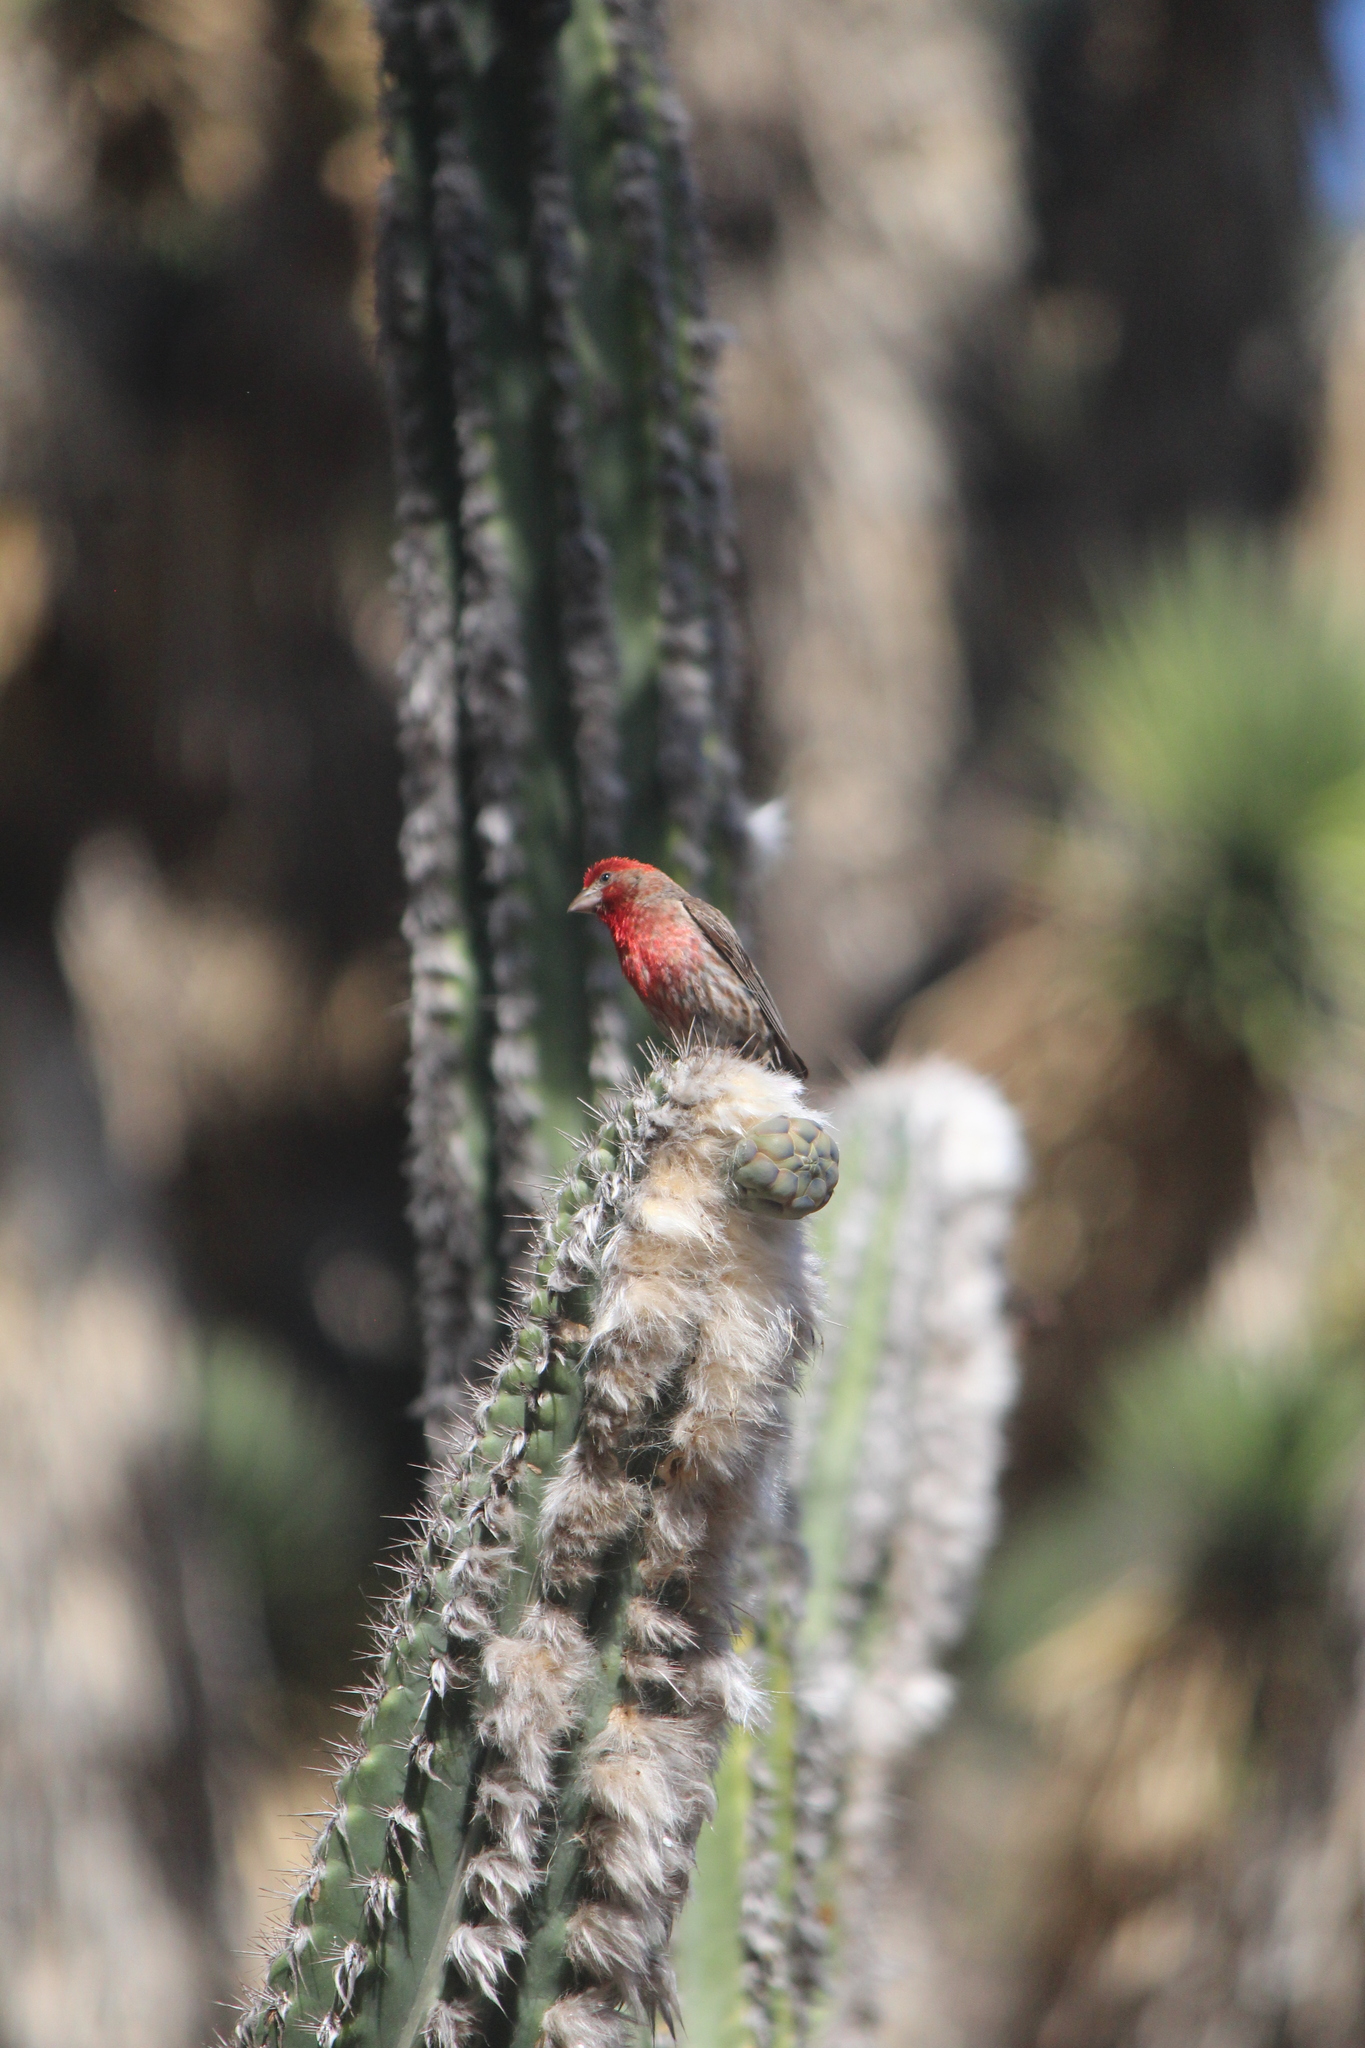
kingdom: Animalia
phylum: Chordata
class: Aves
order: Passeriformes
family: Fringillidae
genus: Haemorhous
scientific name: Haemorhous mexicanus
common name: House finch
